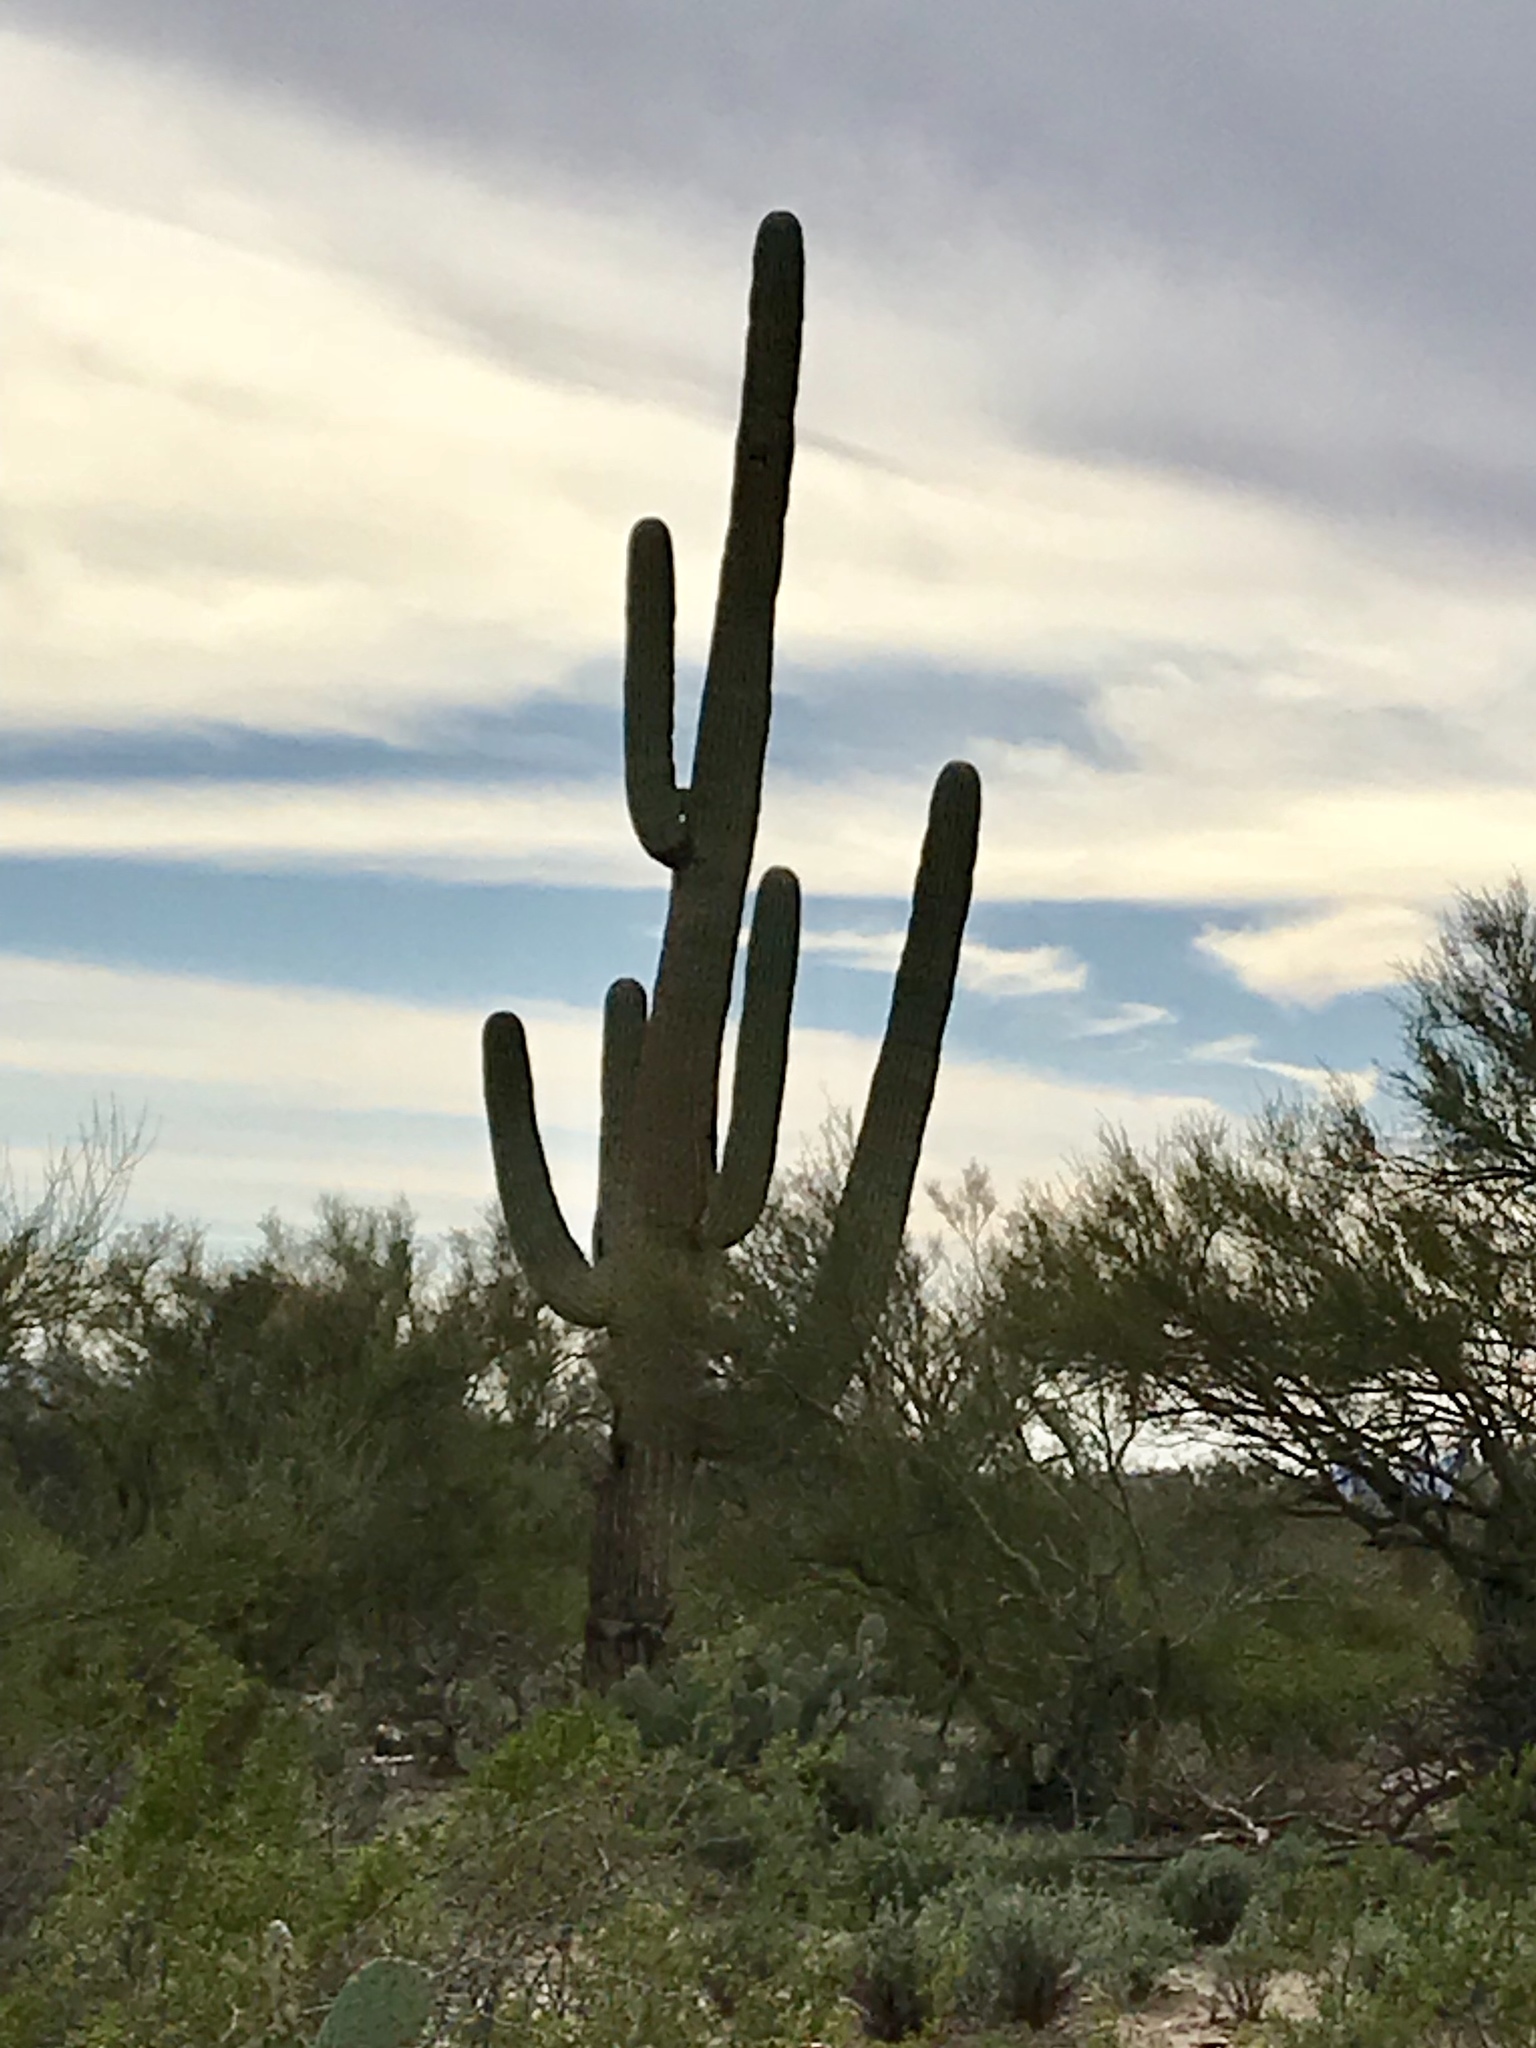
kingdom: Plantae
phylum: Tracheophyta
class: Magnoliopsida
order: Caryophyllales
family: Cactaceae
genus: Carnegiea
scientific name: Carnegiea gigantea
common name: Saguaro
